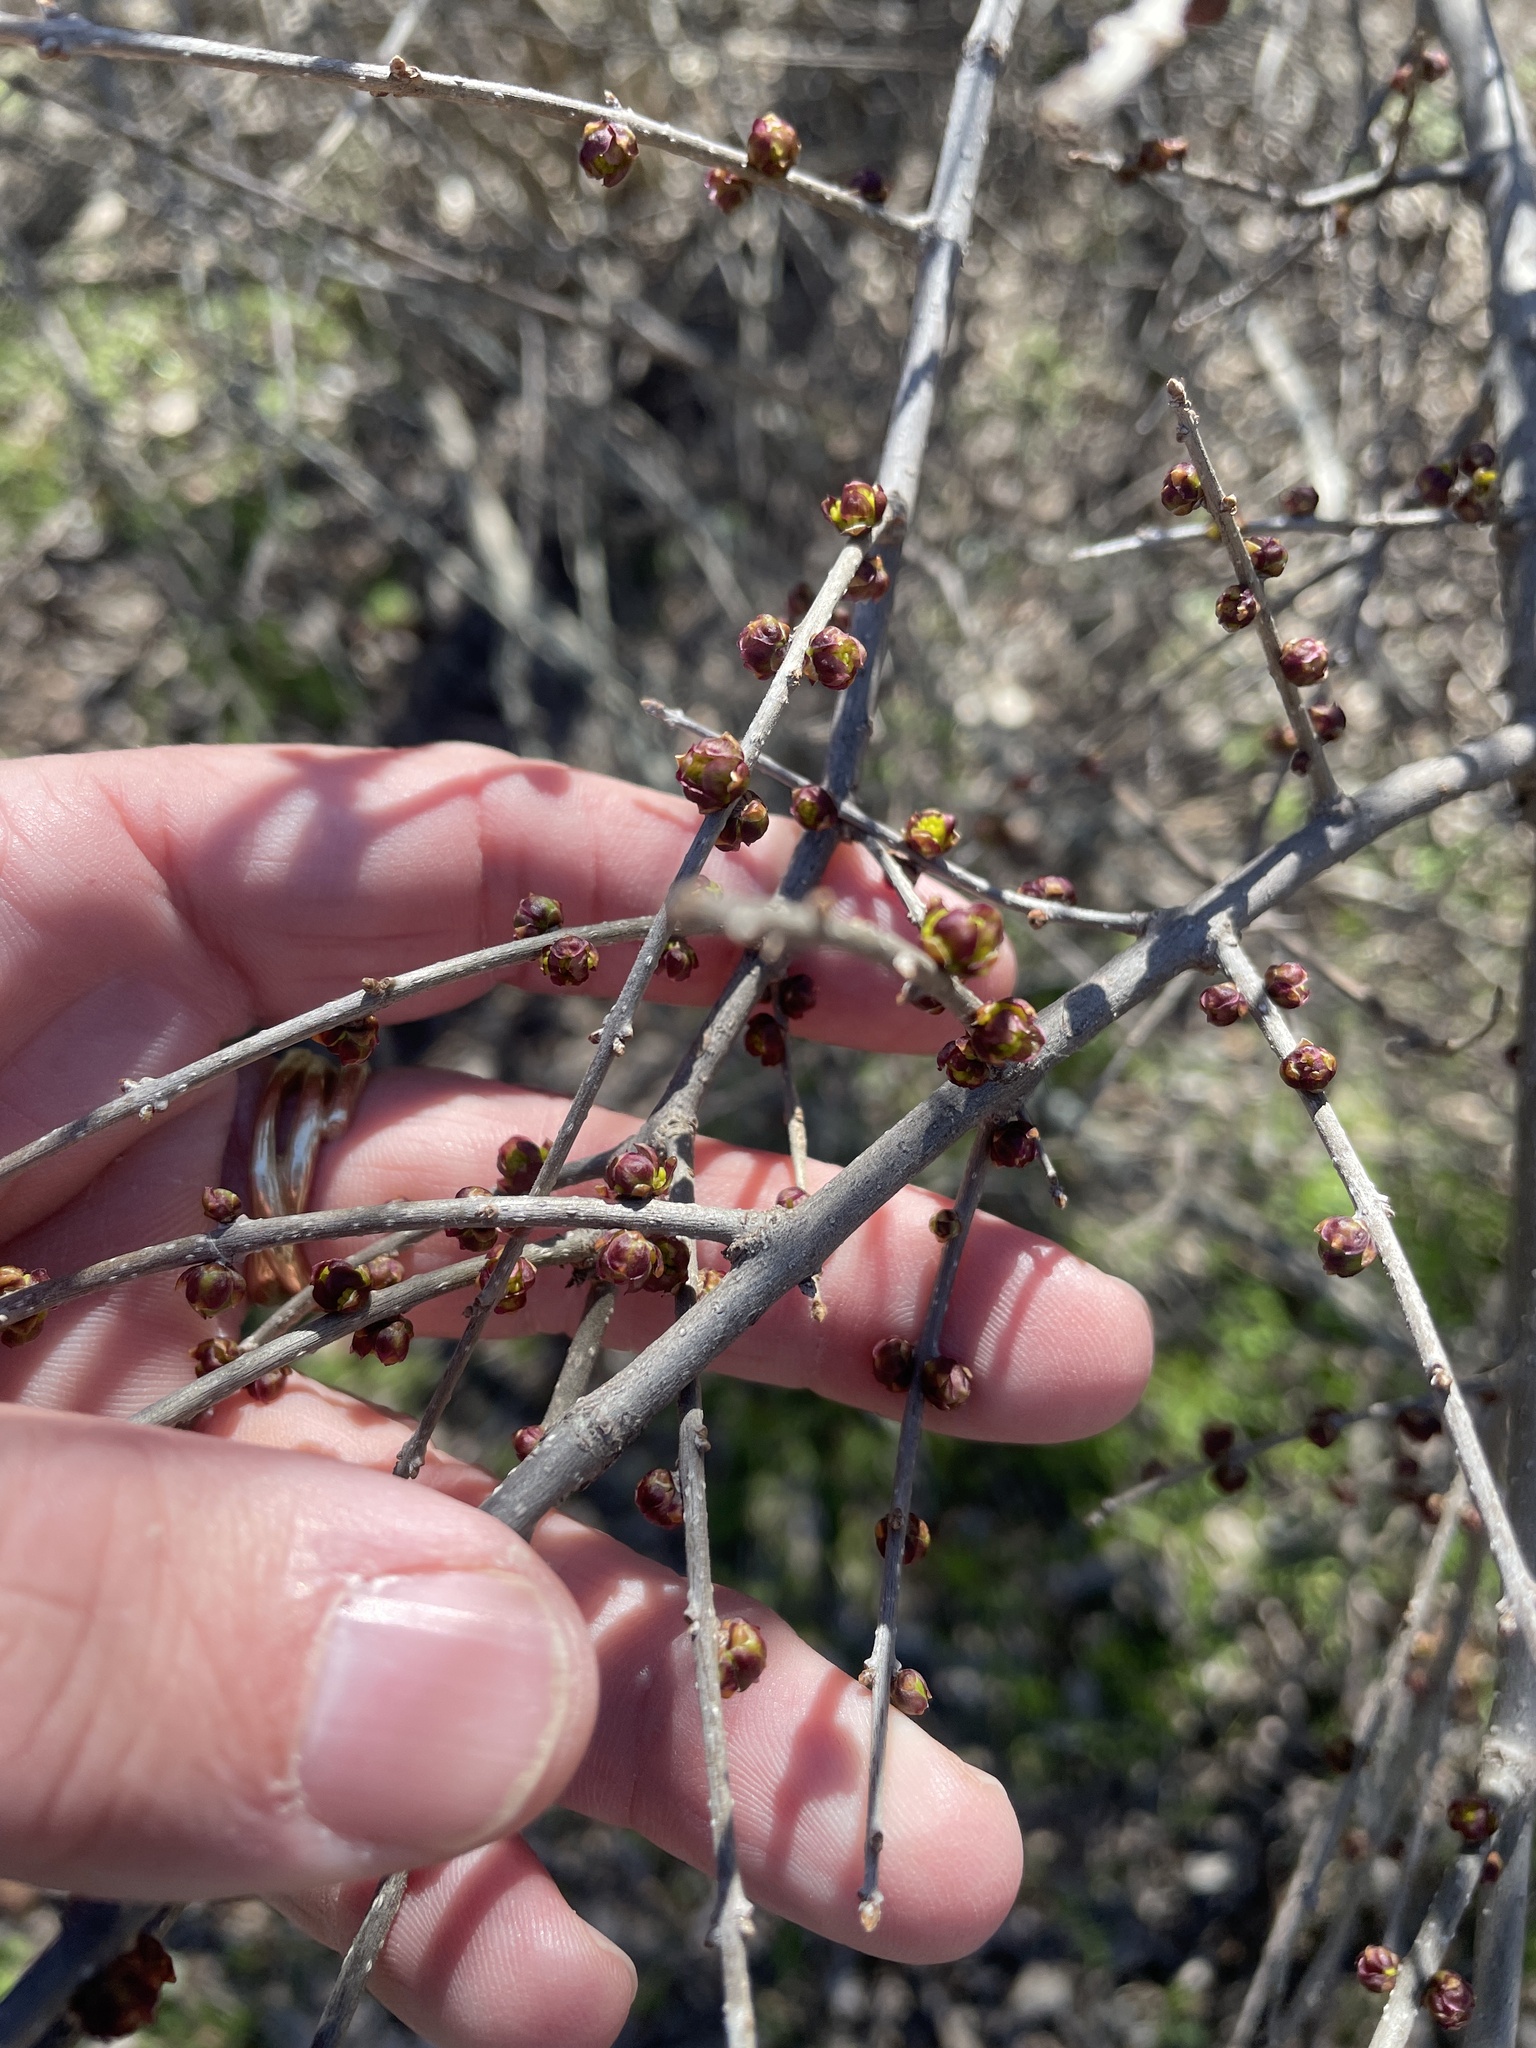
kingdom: Plantae
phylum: Tracheophyta
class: Magnoliopsida
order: Lamiales
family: Oleaceae
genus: Forestiera
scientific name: Forestiera pubescens
